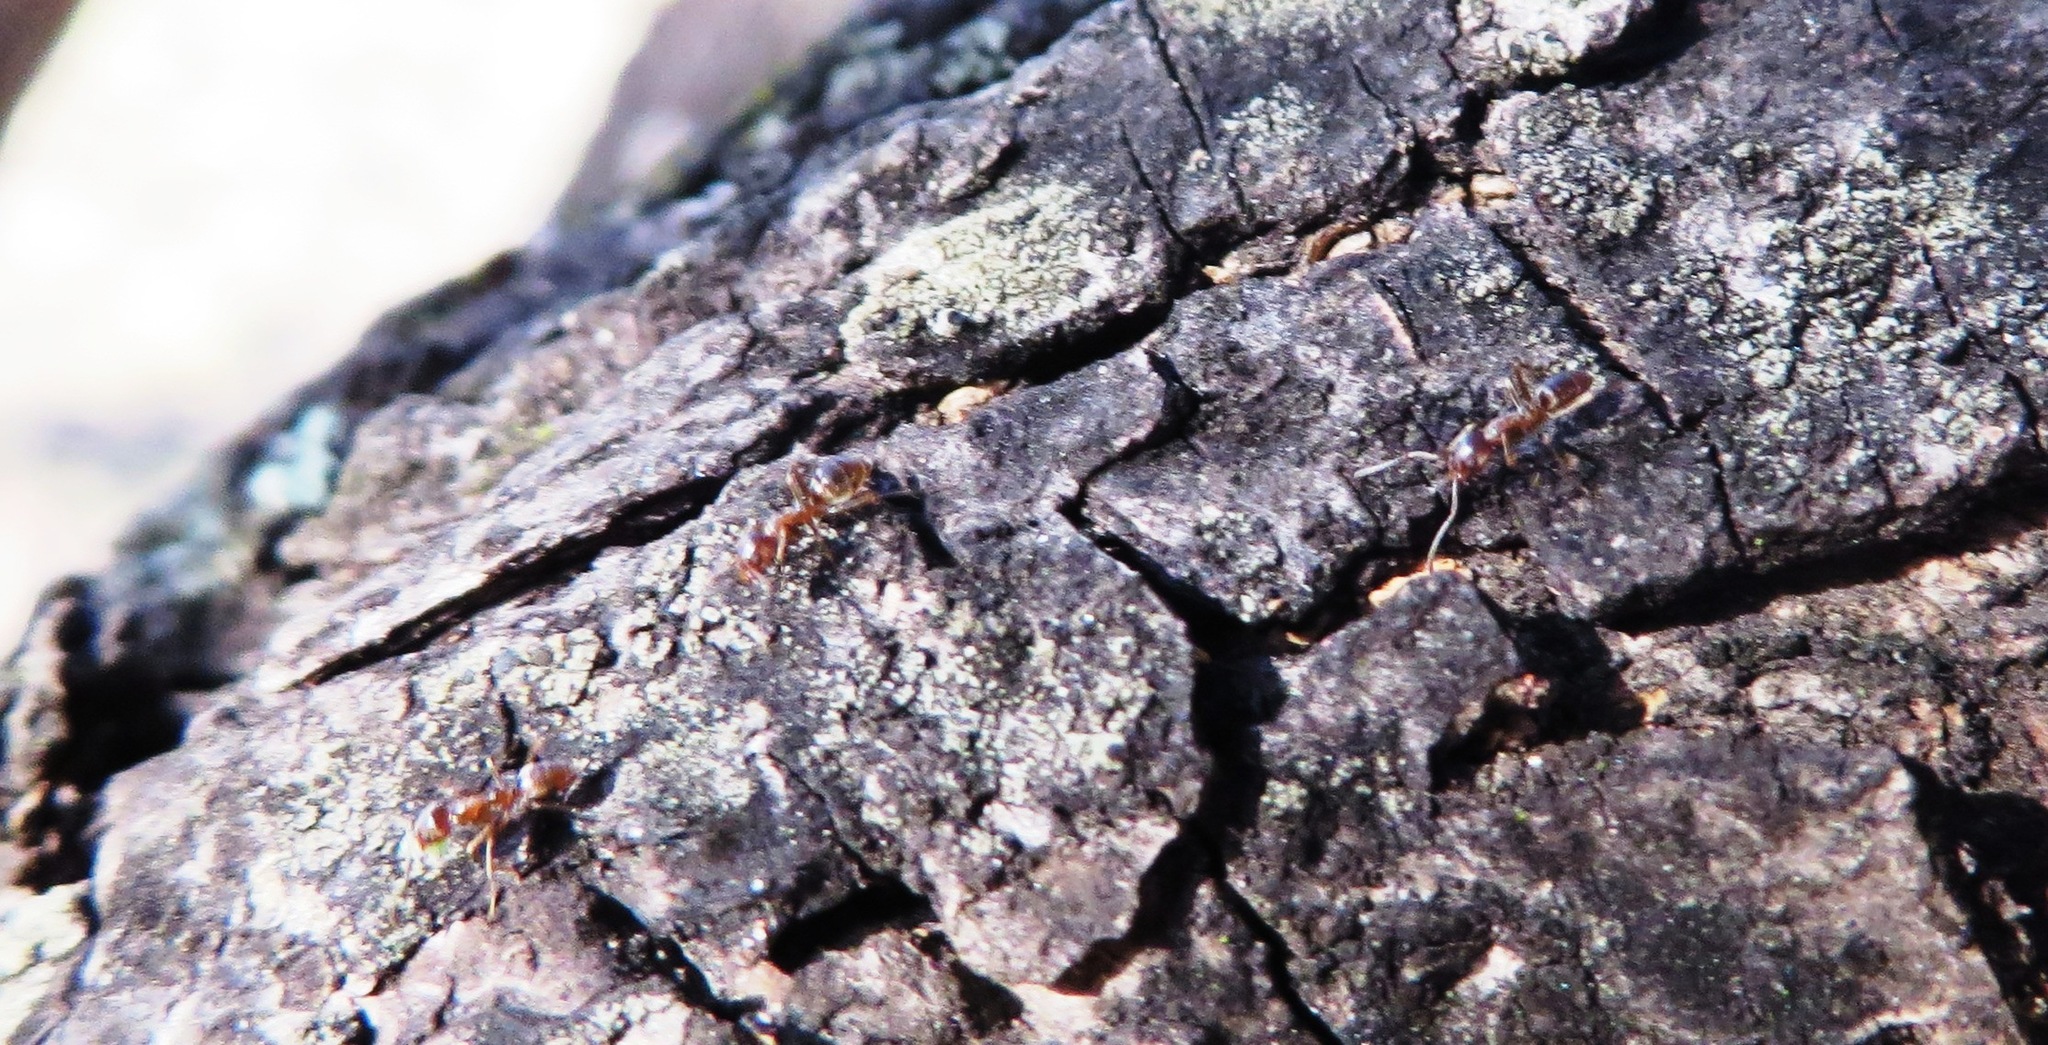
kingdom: Animalia
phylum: Arthropoda
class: Insecta
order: Hymenoptera
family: Formicidae
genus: Linepithema
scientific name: Linepithema humile
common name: Argentine ant
